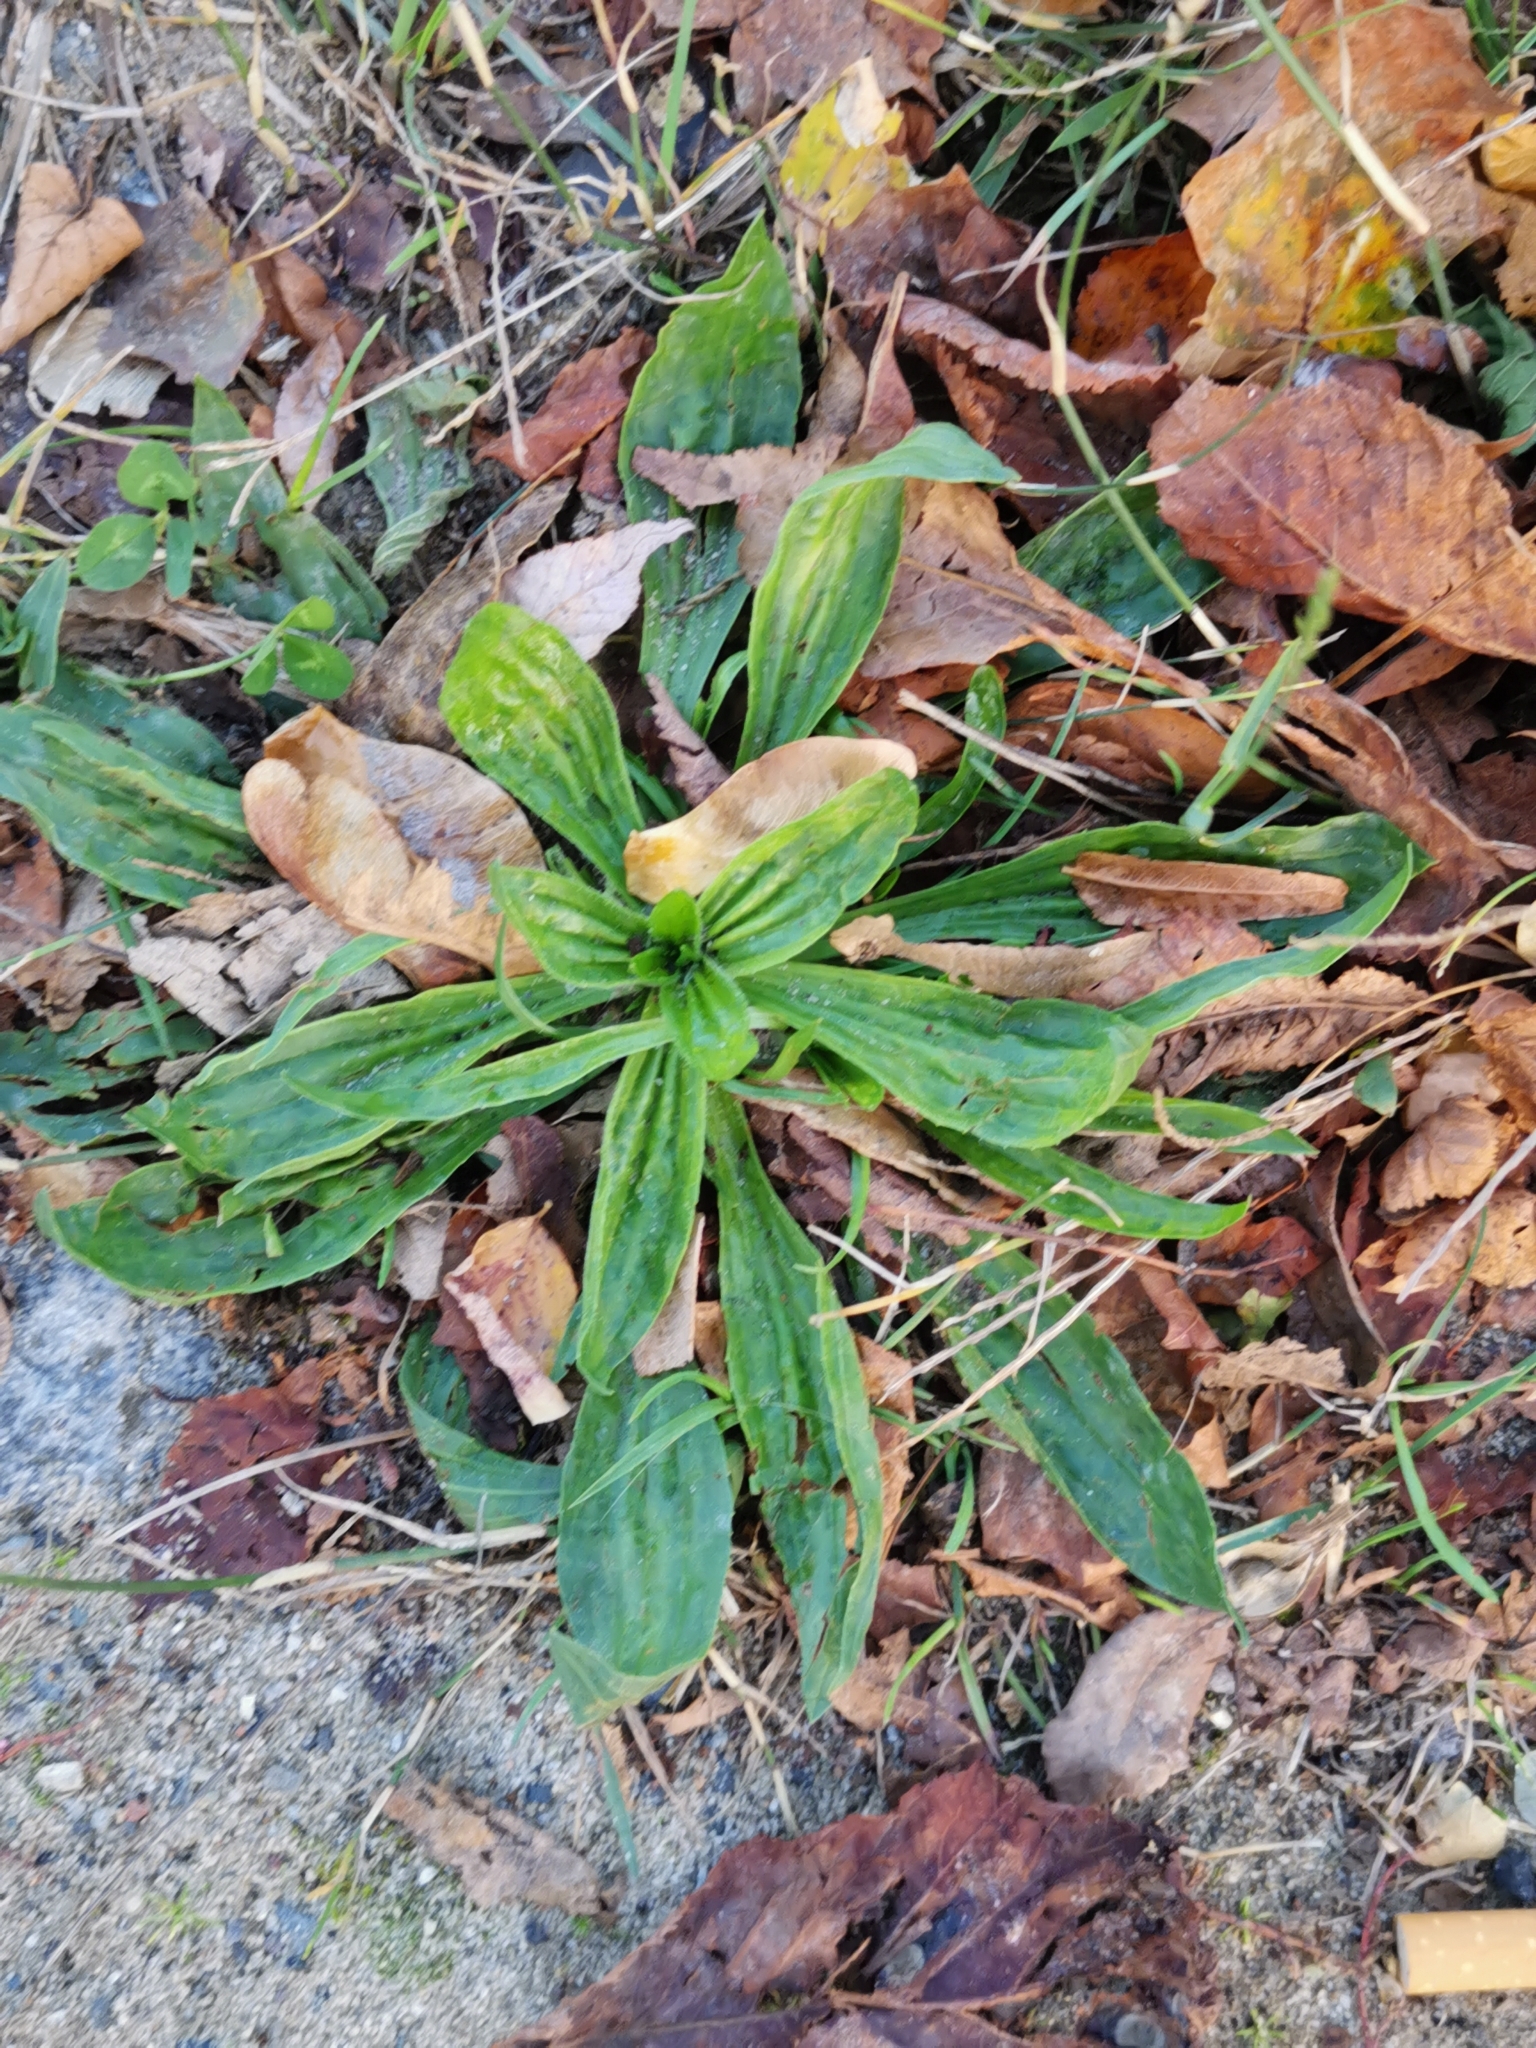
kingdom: Plantae
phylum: Tracheophyta
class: Magnoliopsida
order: Lamiales
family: Plantaginaceae
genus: Plantago
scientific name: Plantago lanceolata
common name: Ribwort plantain
